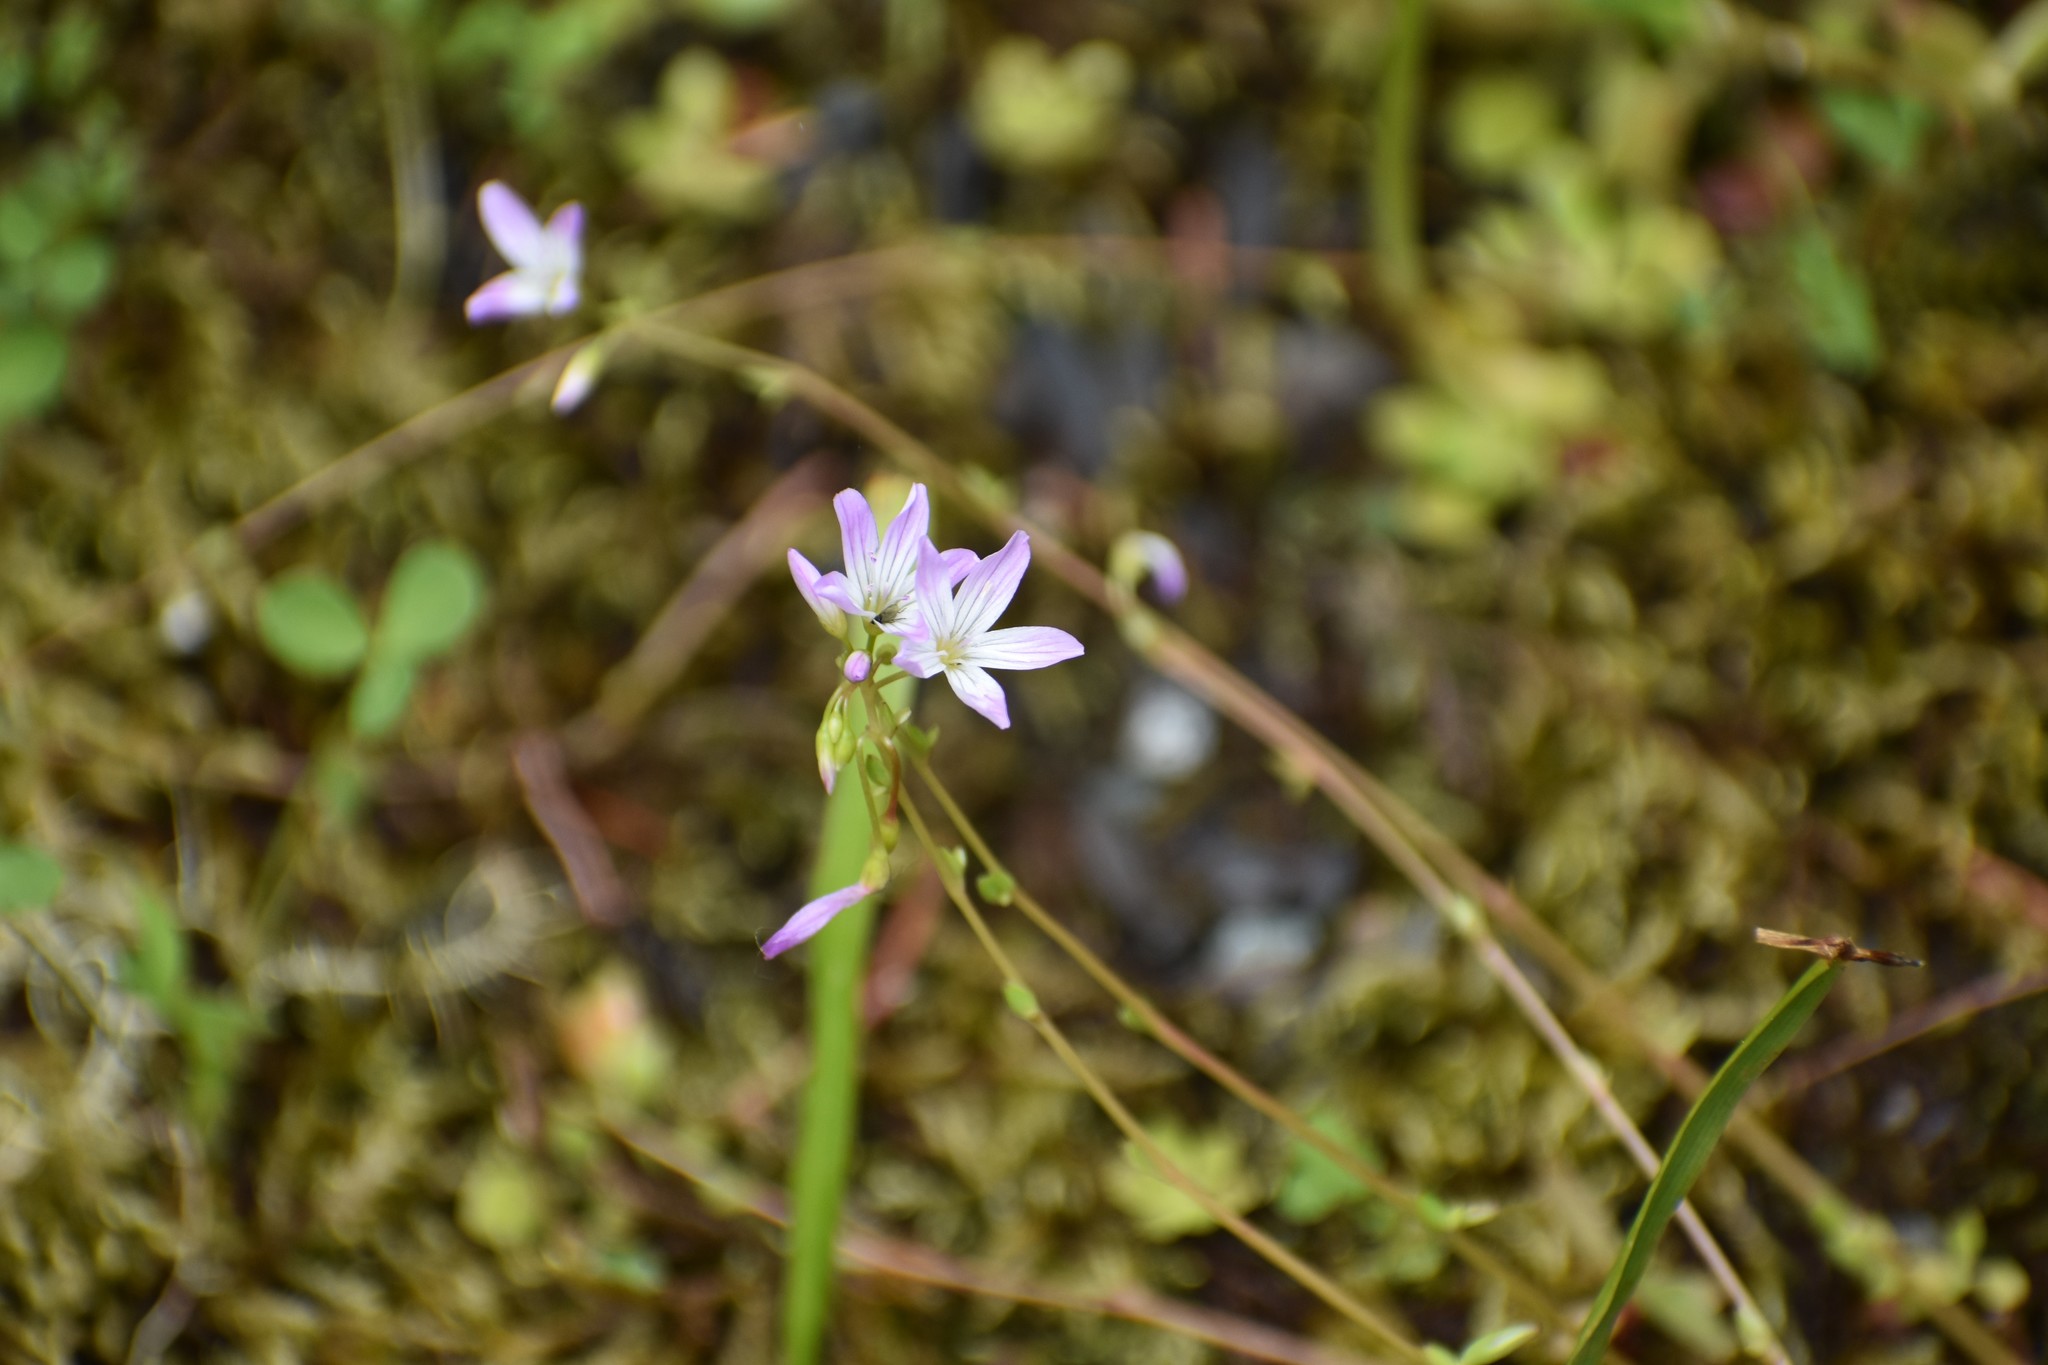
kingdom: Plantae
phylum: Tracheophyta
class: Magnoliopsida
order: Caryophyllales
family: Montiaceae
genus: Montia
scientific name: Montia parvifolia
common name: Small-leaved blinks
